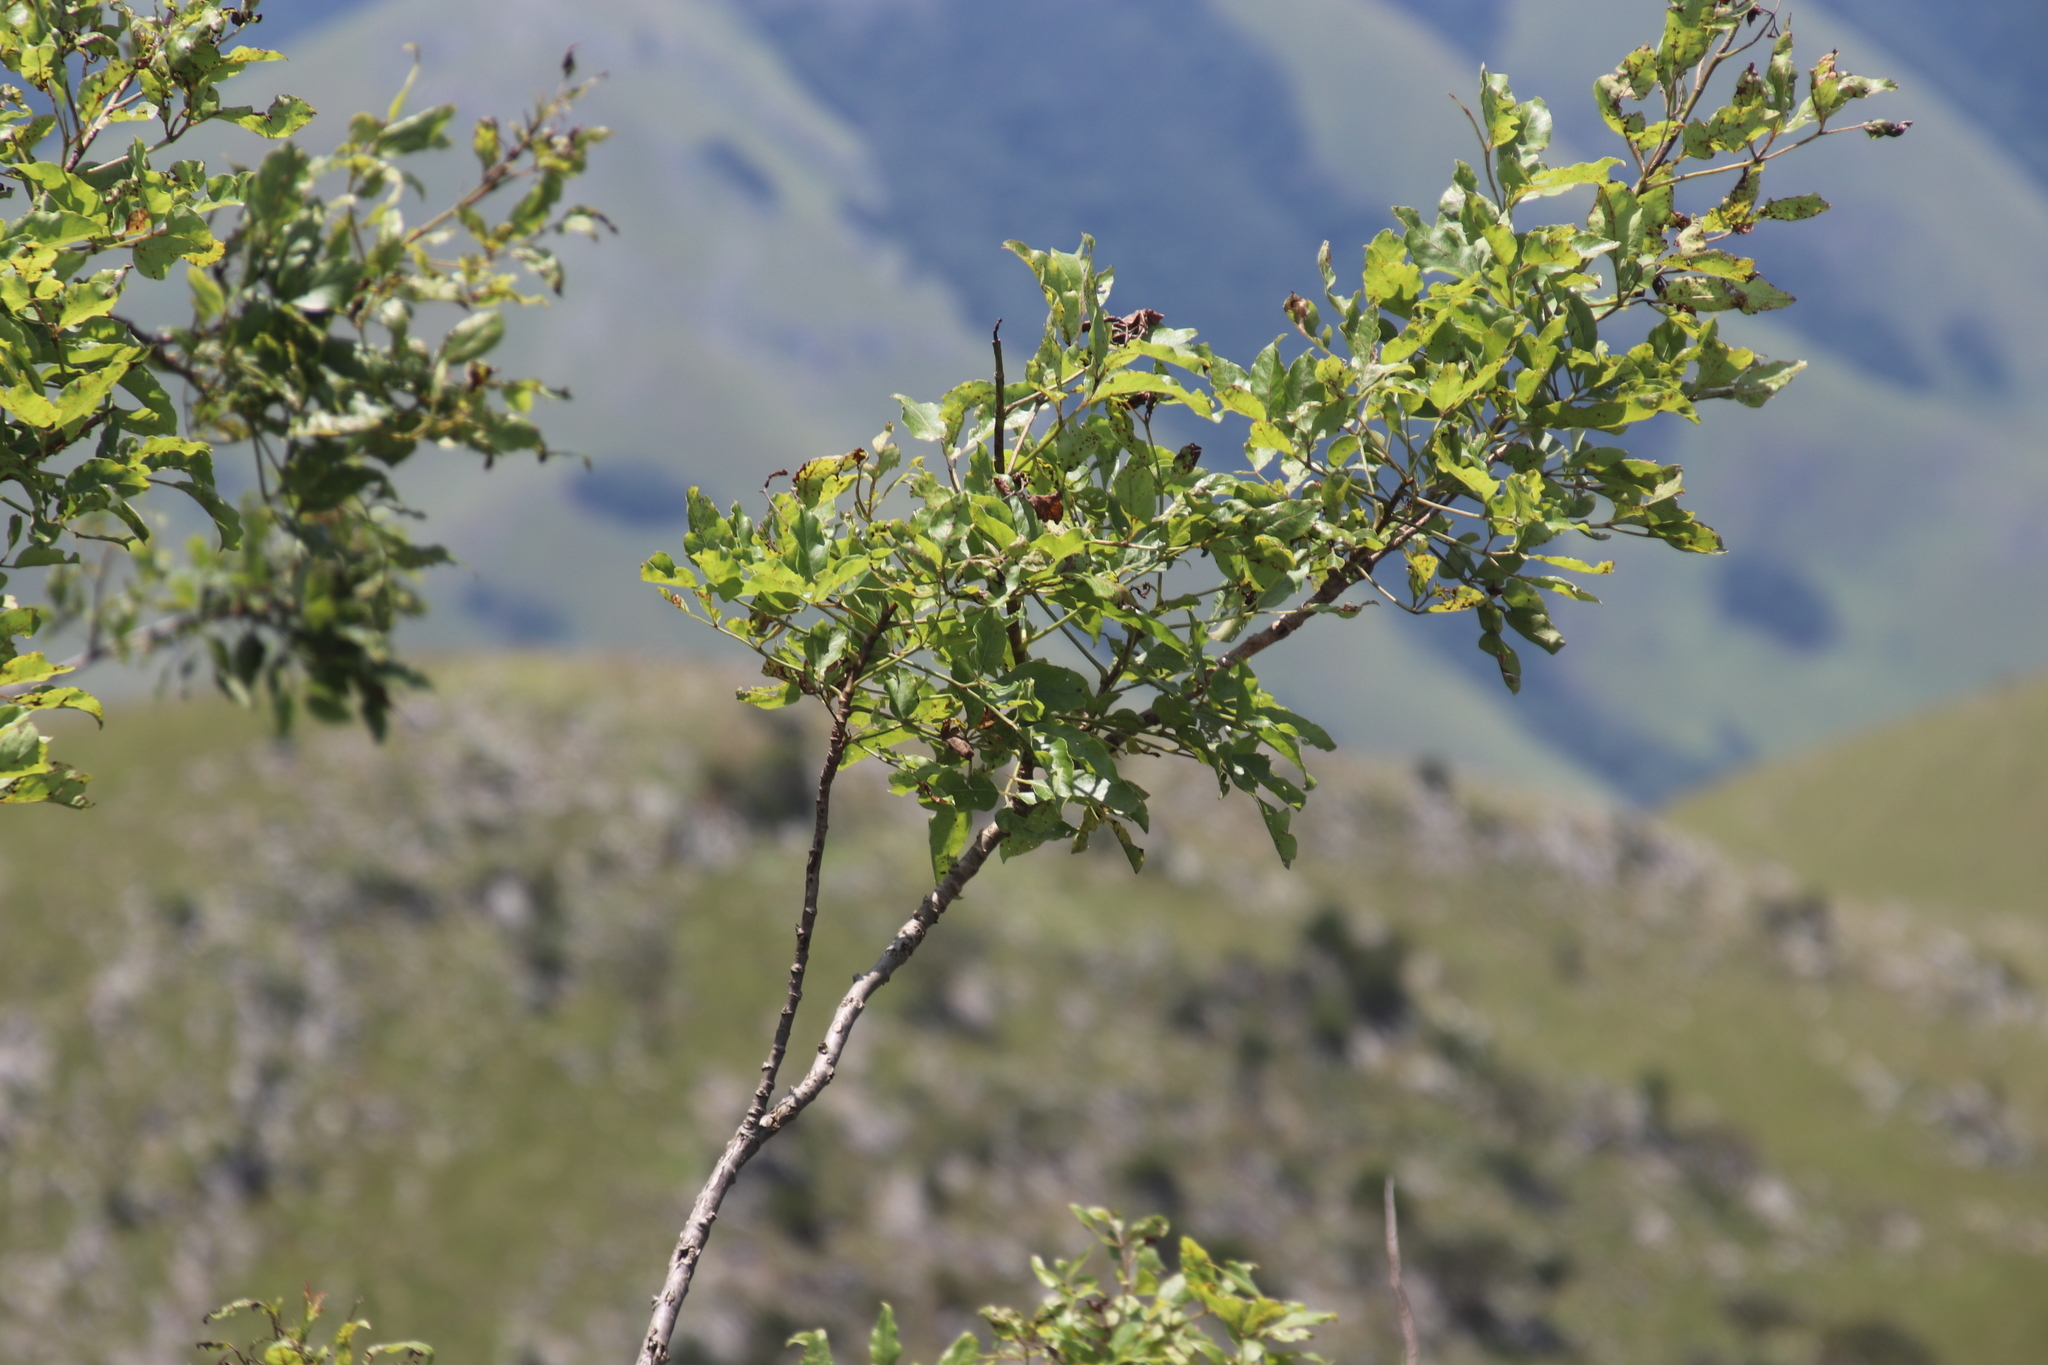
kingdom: Plantae
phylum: Tracheophyta
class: Magnoliopsida
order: Sapindales
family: Anacardiaceae
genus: Searsia
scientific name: Searsia chirindensis
